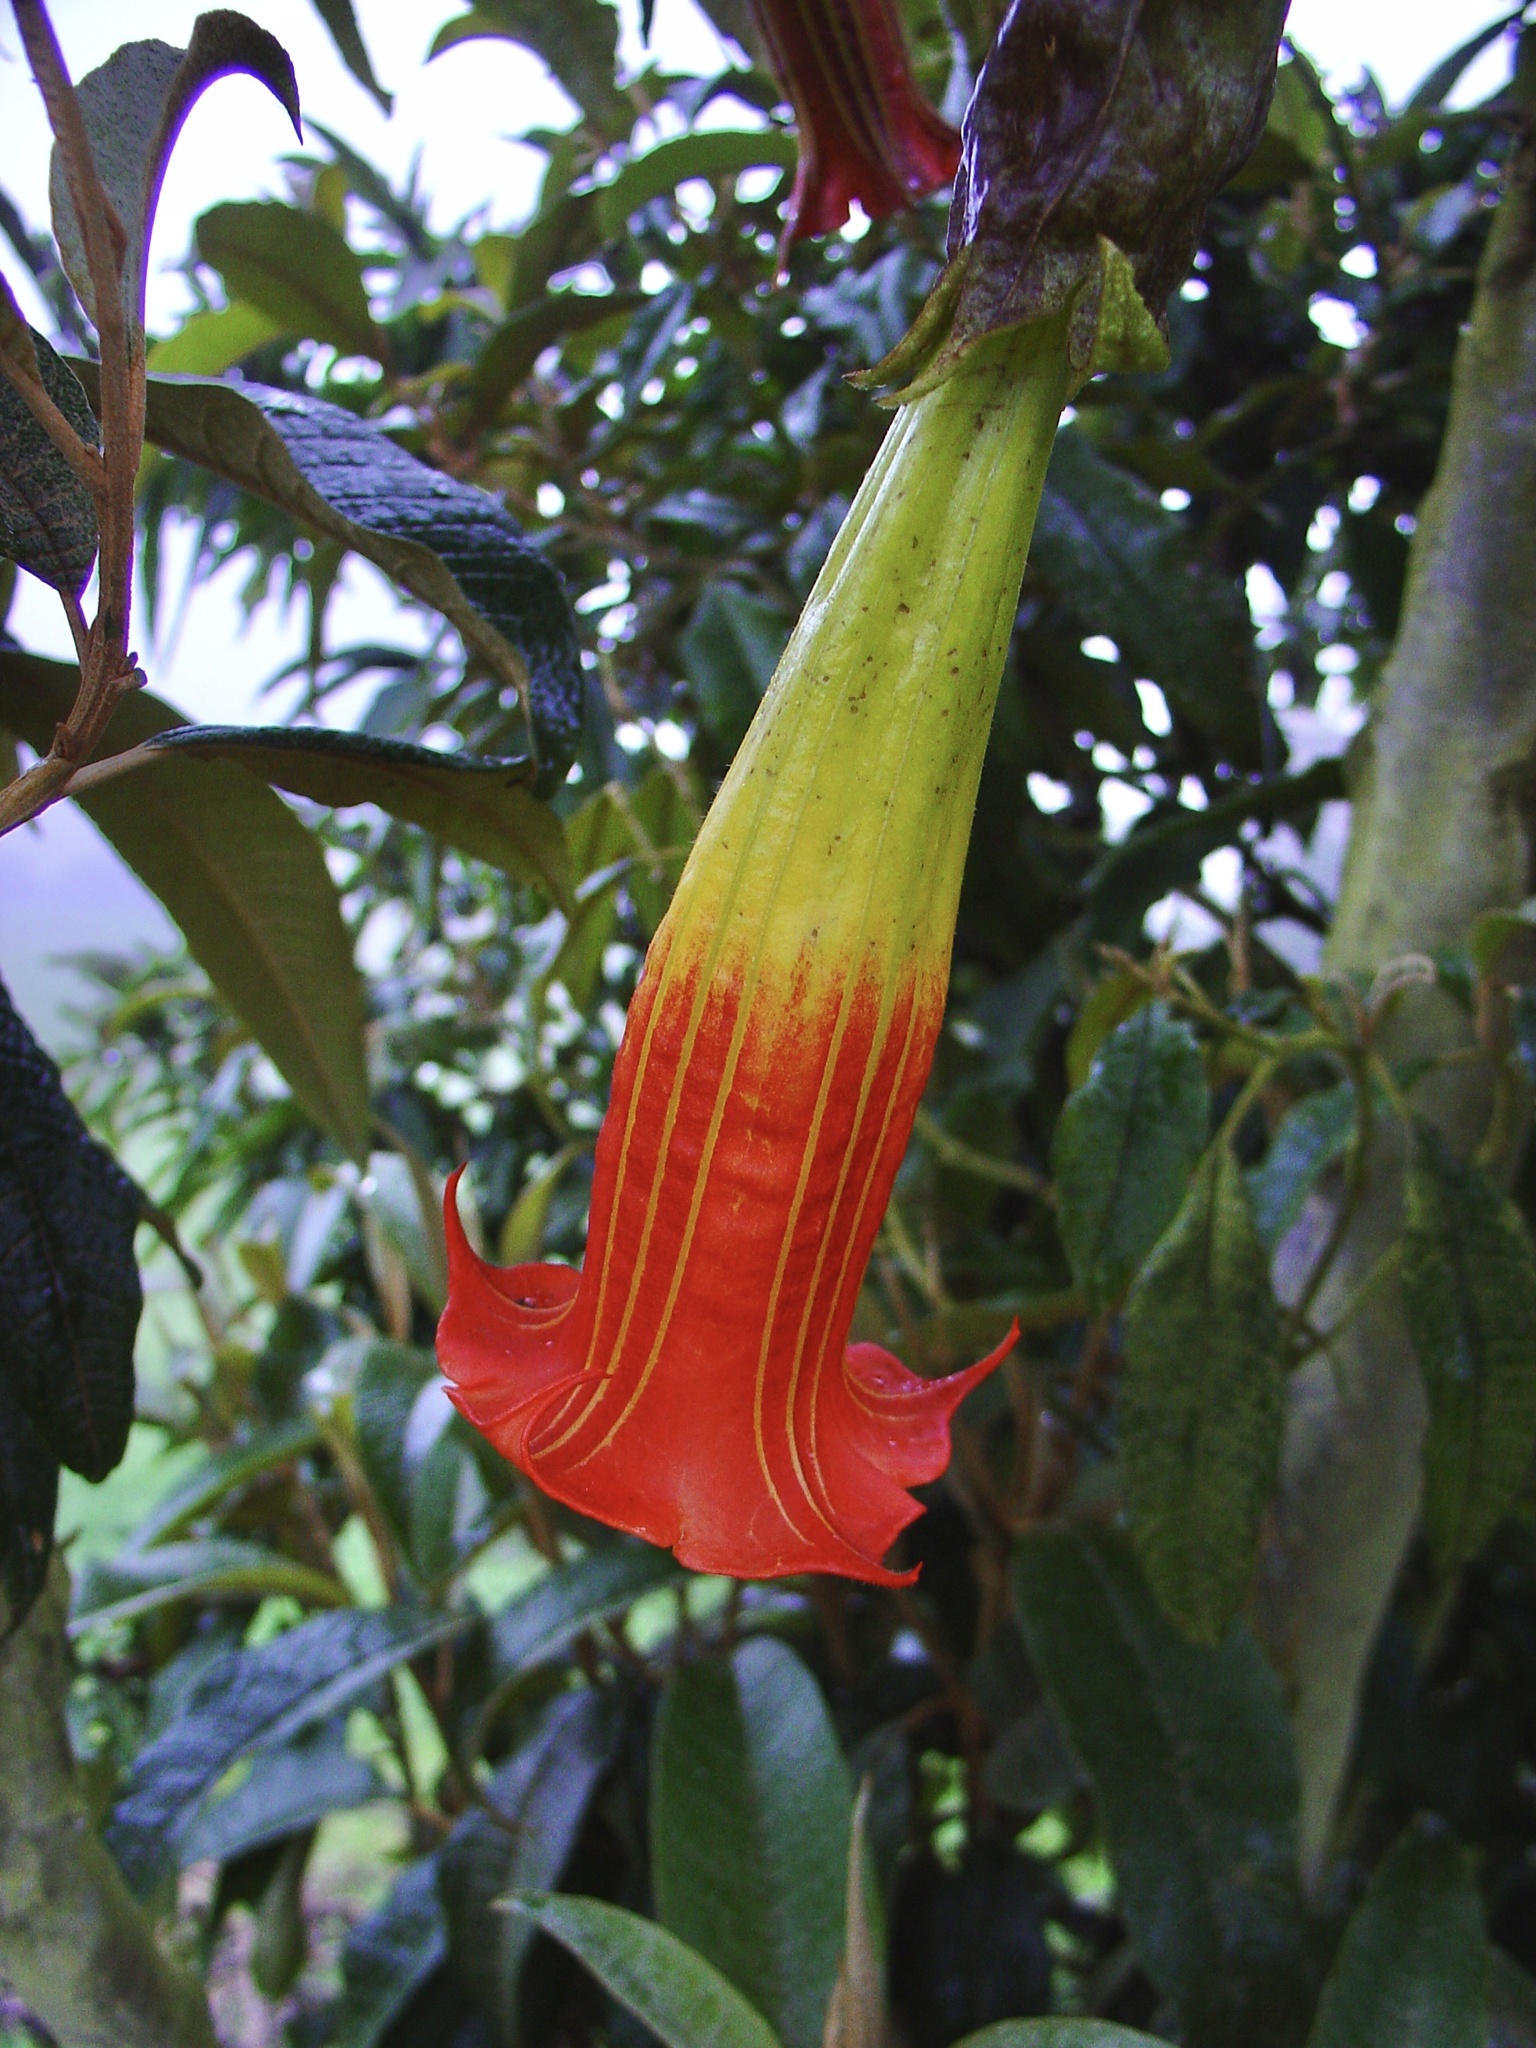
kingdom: Plantae
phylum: Tracheophyta
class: Magnoliopsida
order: Solanales
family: Solanaceae
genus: Brugmansia
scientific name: Brugmansia sanguinea
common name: Red floripontio
